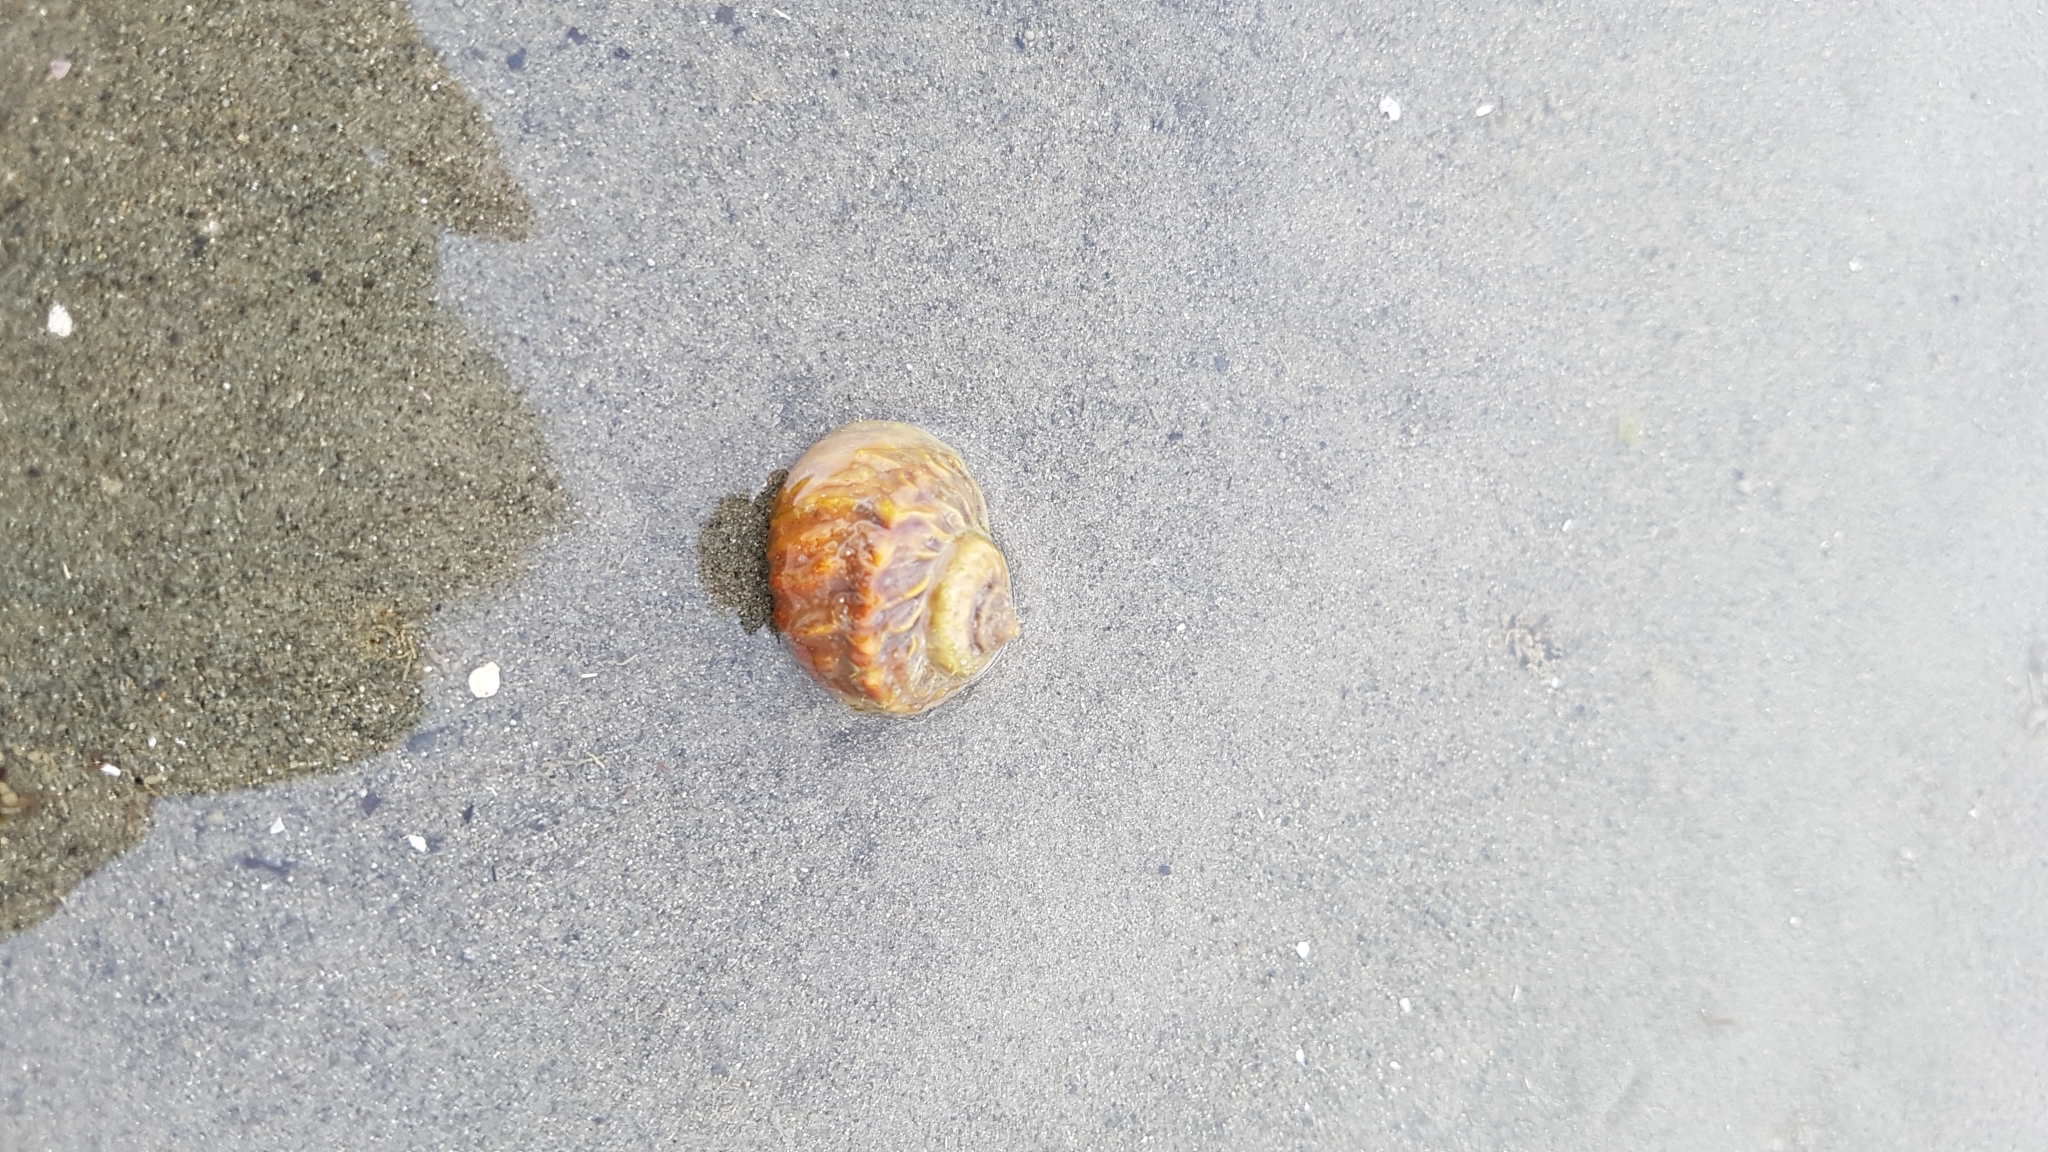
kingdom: Animalia
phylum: Mollusca
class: Gastropoda
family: Amphibolidae
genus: Amphibola
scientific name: Amphibola crenata
